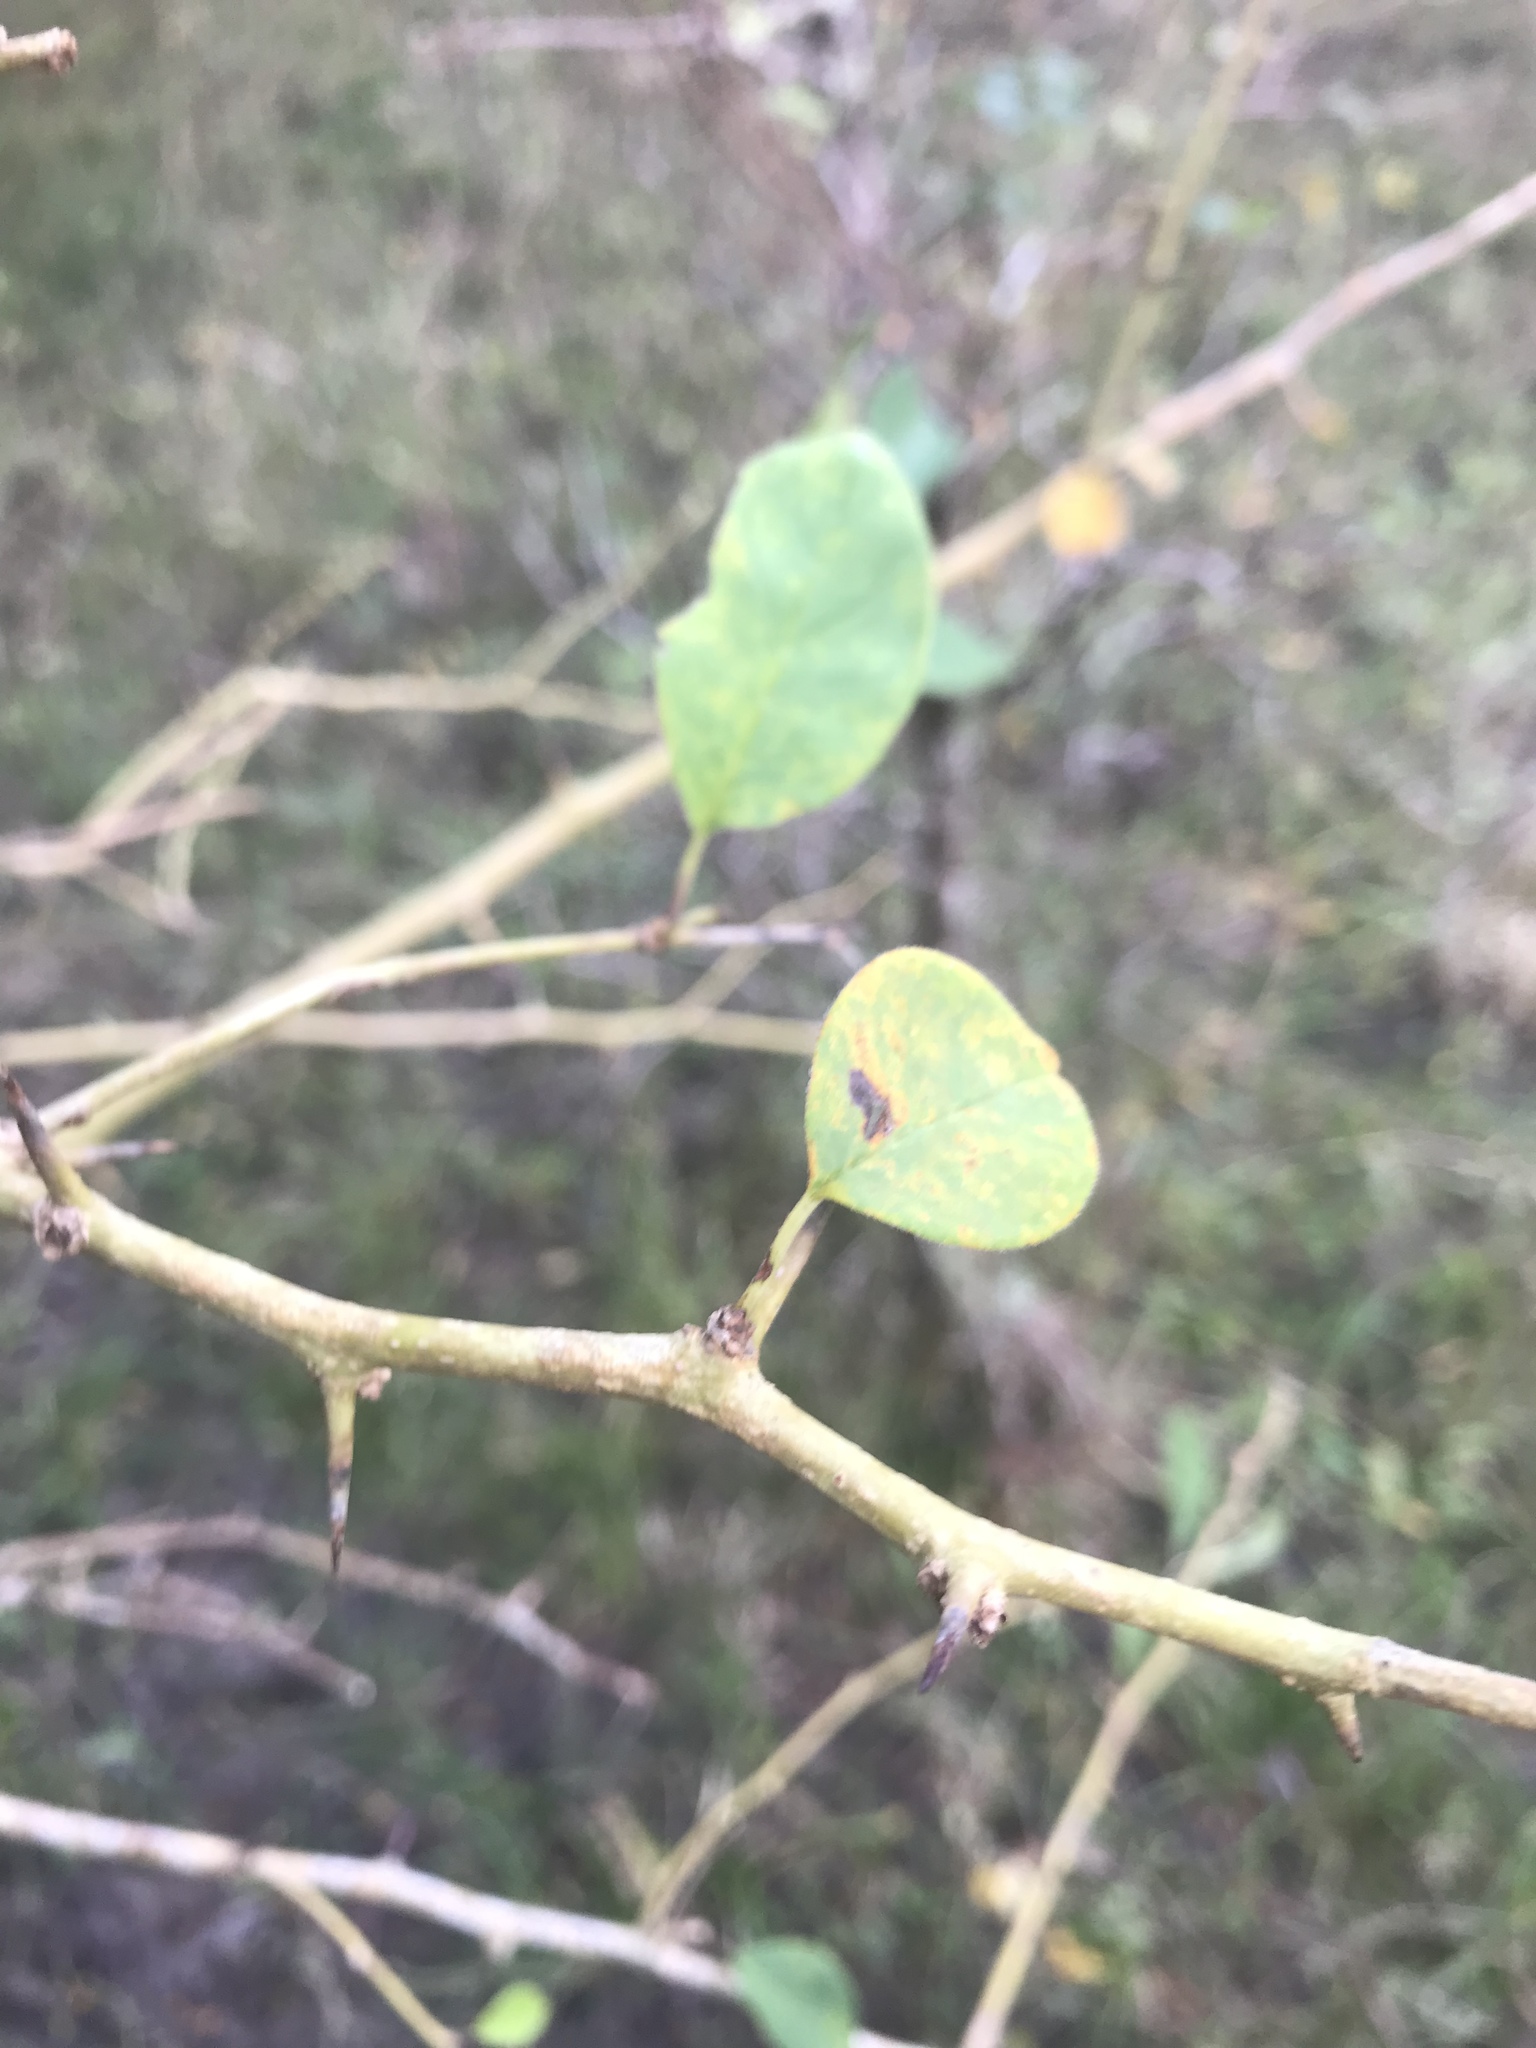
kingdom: Plantae
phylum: Tracheophyta
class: Magnoliopsida
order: Rosales
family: Moraceae
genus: Maclura
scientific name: Maclura pomifera
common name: Osage-orange
